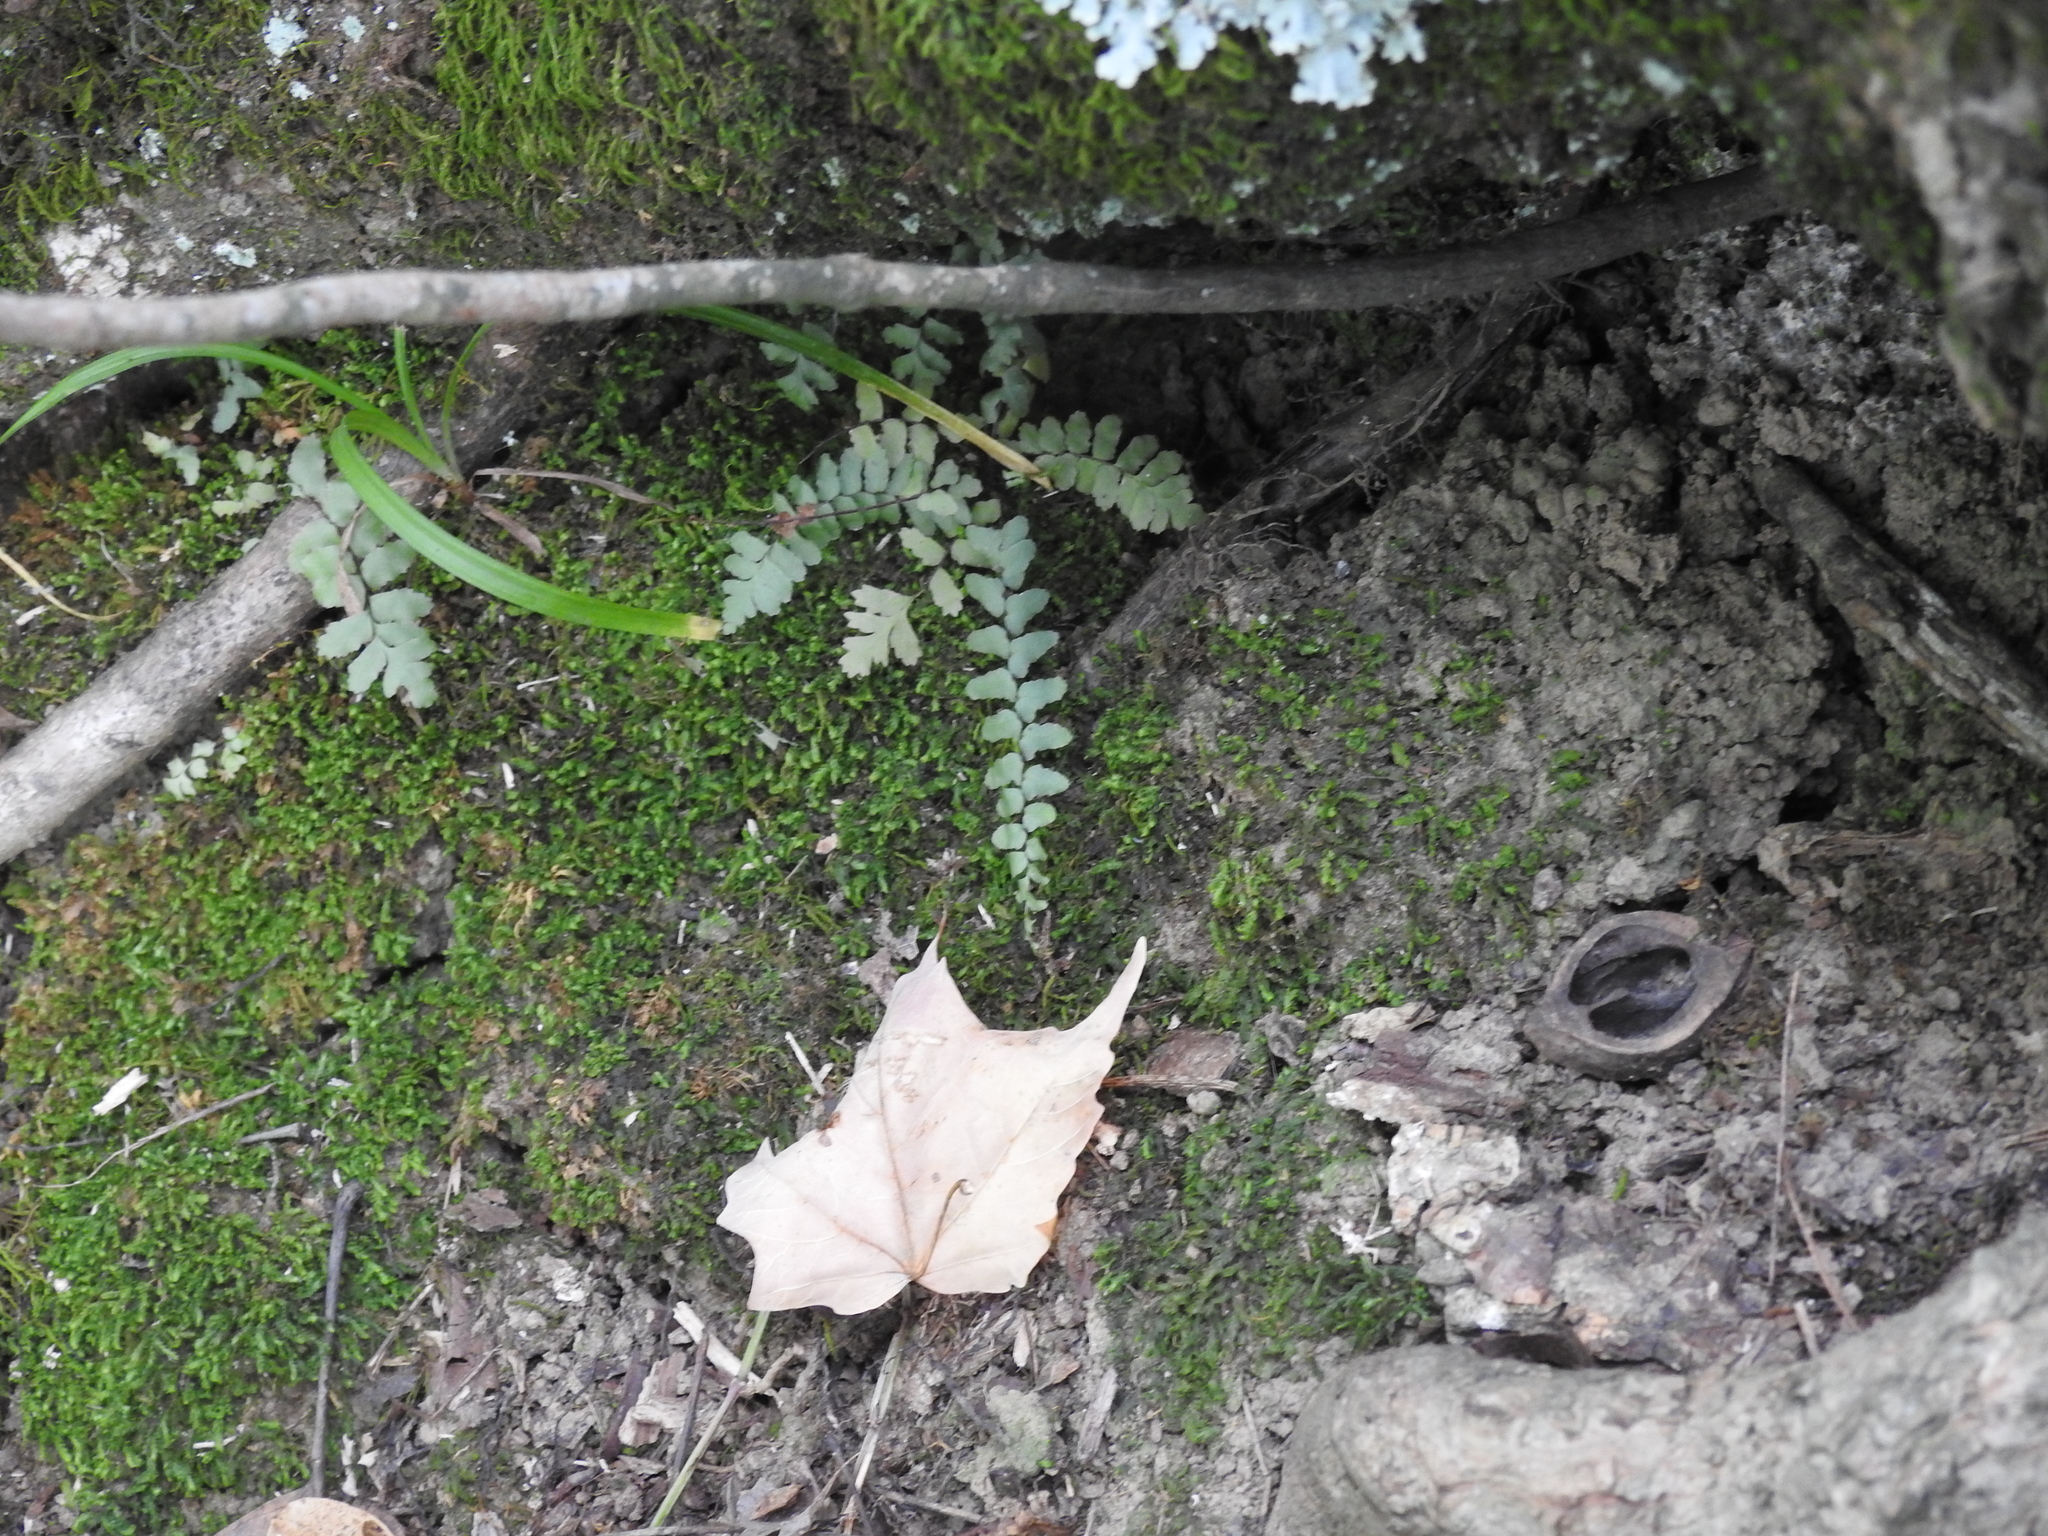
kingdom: Plantae
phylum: Tracheophyta
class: Polypodiopsida
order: Polypodiales
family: Aspleniaceae
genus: Asplenium
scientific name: Asplenium platyneuron
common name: Ebony spleenwort
